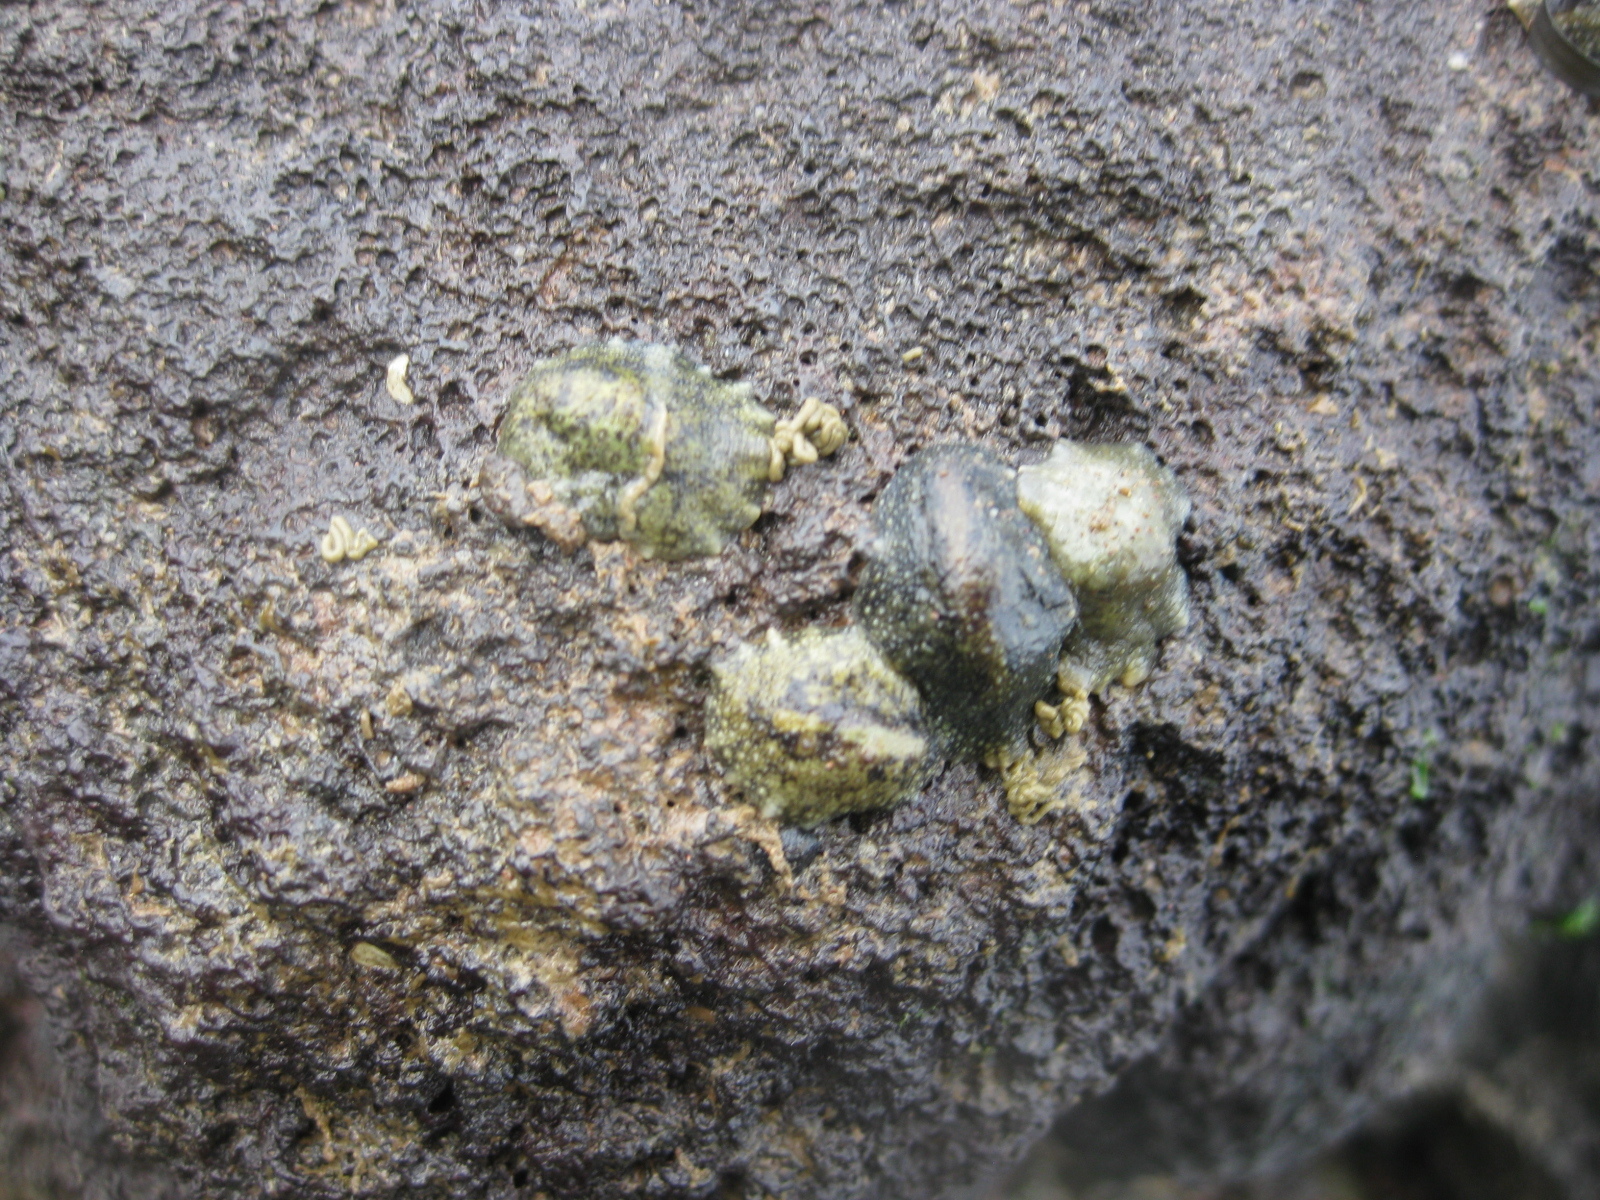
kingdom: Animalia
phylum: Mollusca
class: Gastropoda
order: Systellommatophora
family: Onchidiidae
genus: Onchidella
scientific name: Onchidella nigricans
